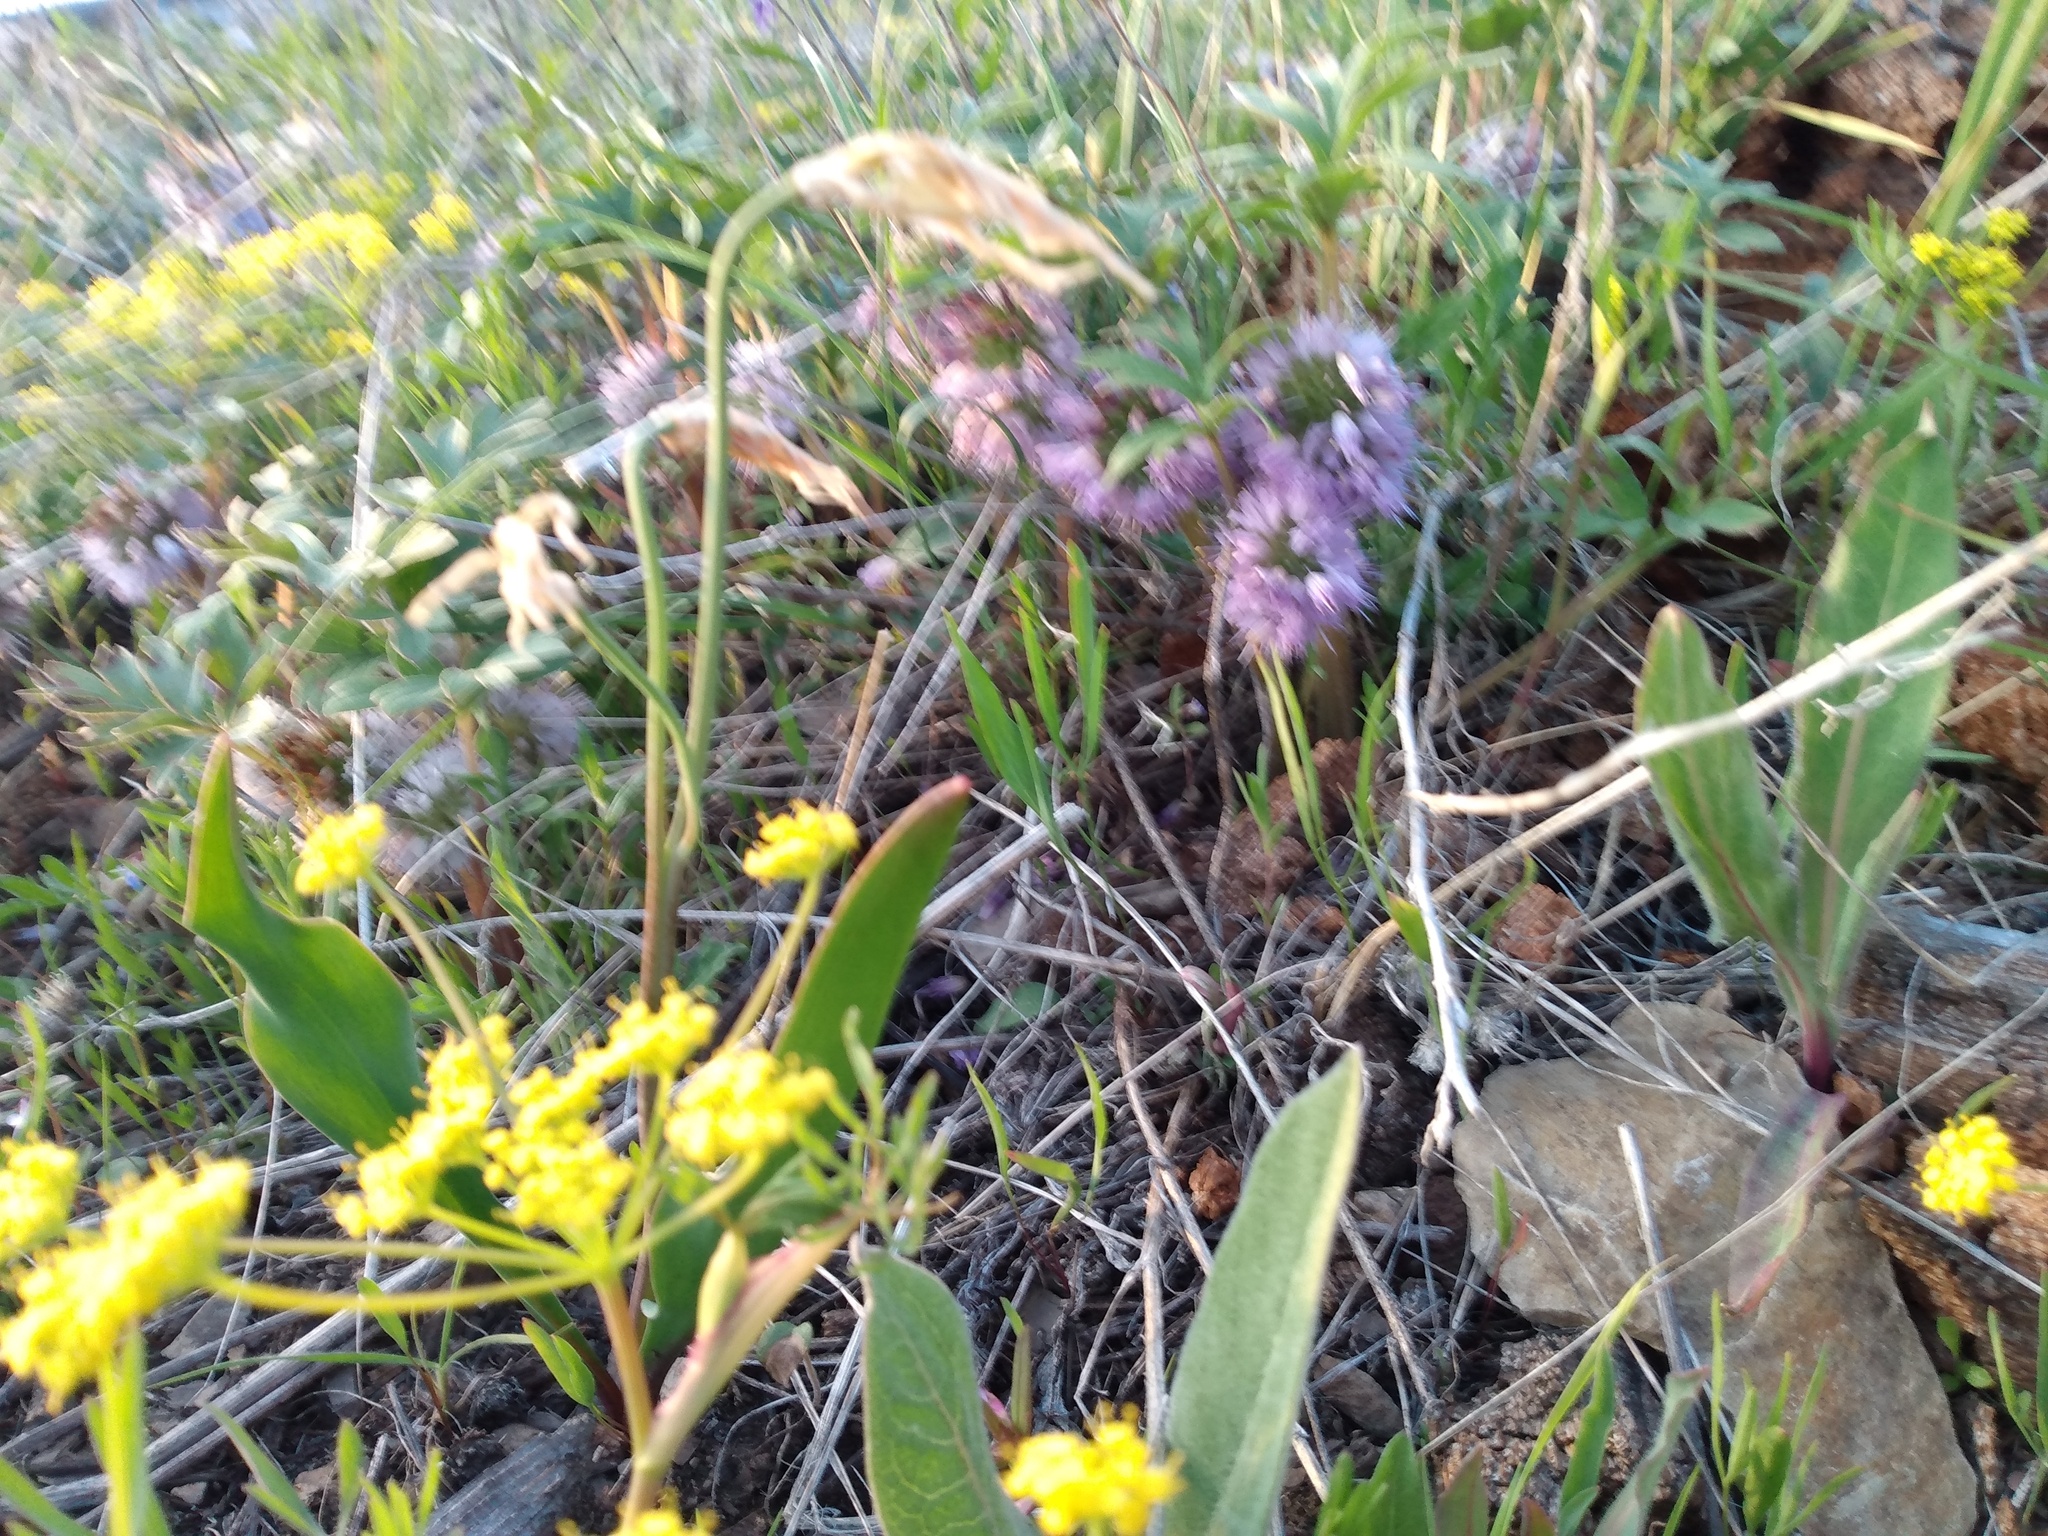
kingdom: Plantae
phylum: Tracheophyta
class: Magnoliopsida
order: Boraginales
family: Hydrophyllaceae
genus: Hydrophyllum
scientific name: Hydrophyllum capitatum
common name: Woollen-breeches
